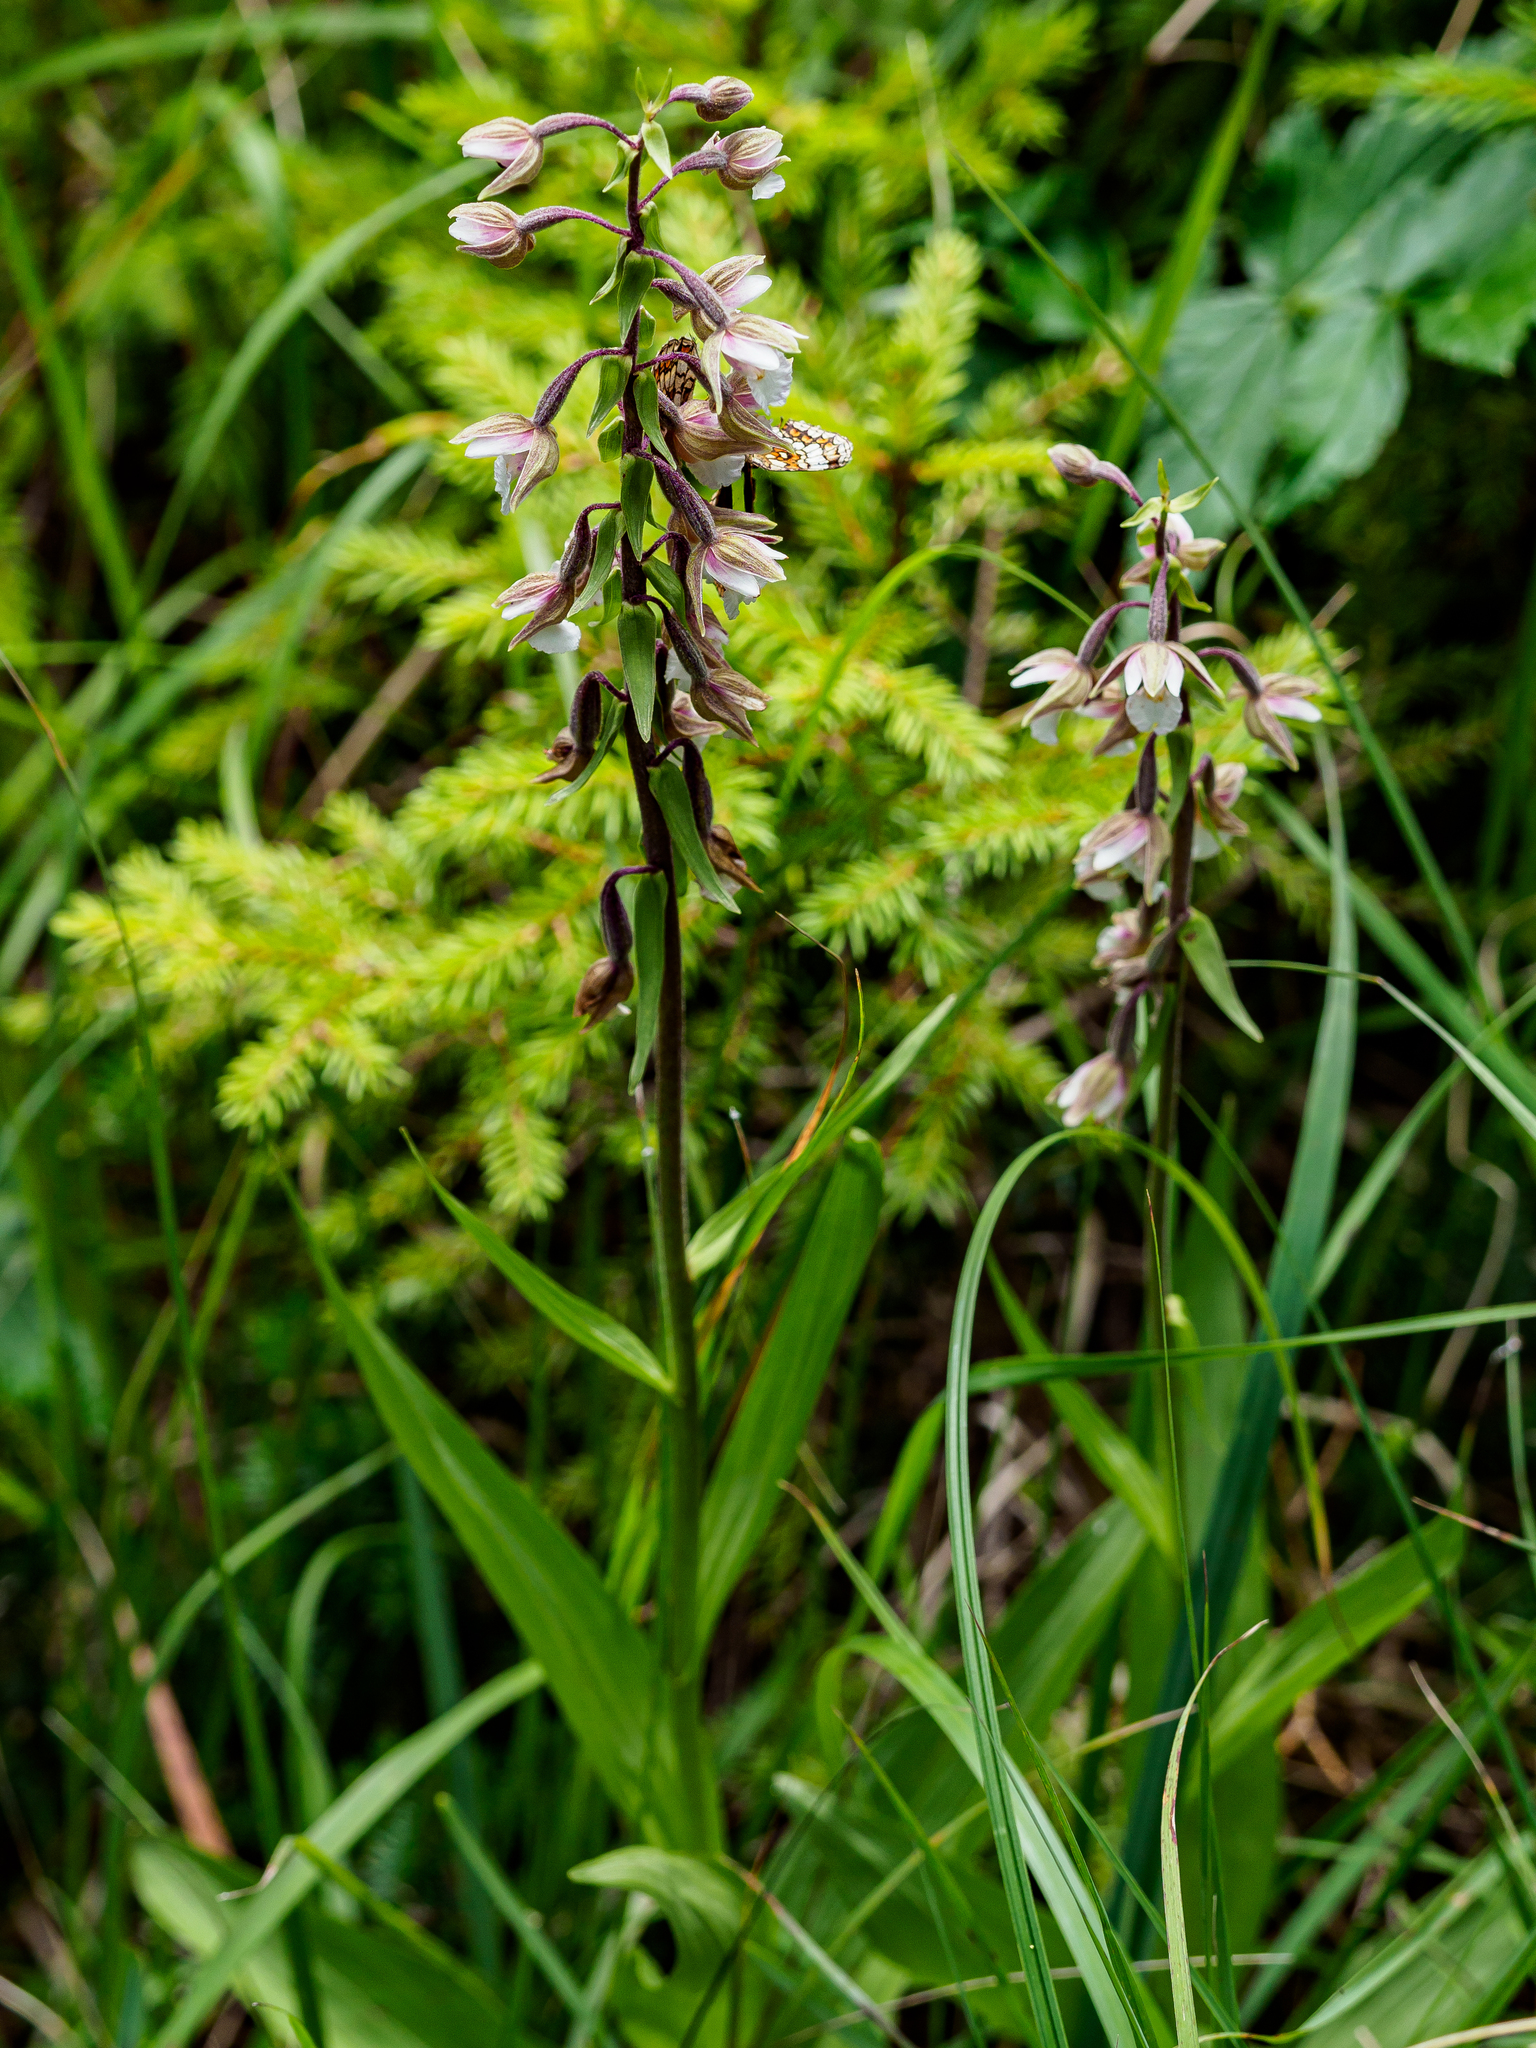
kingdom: Plantae
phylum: Tracheophyta
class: Liliopsida
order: Asparagales
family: Orchidaceae
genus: Epipactis
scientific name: Epipactis palustris
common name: Marsh helleborine
